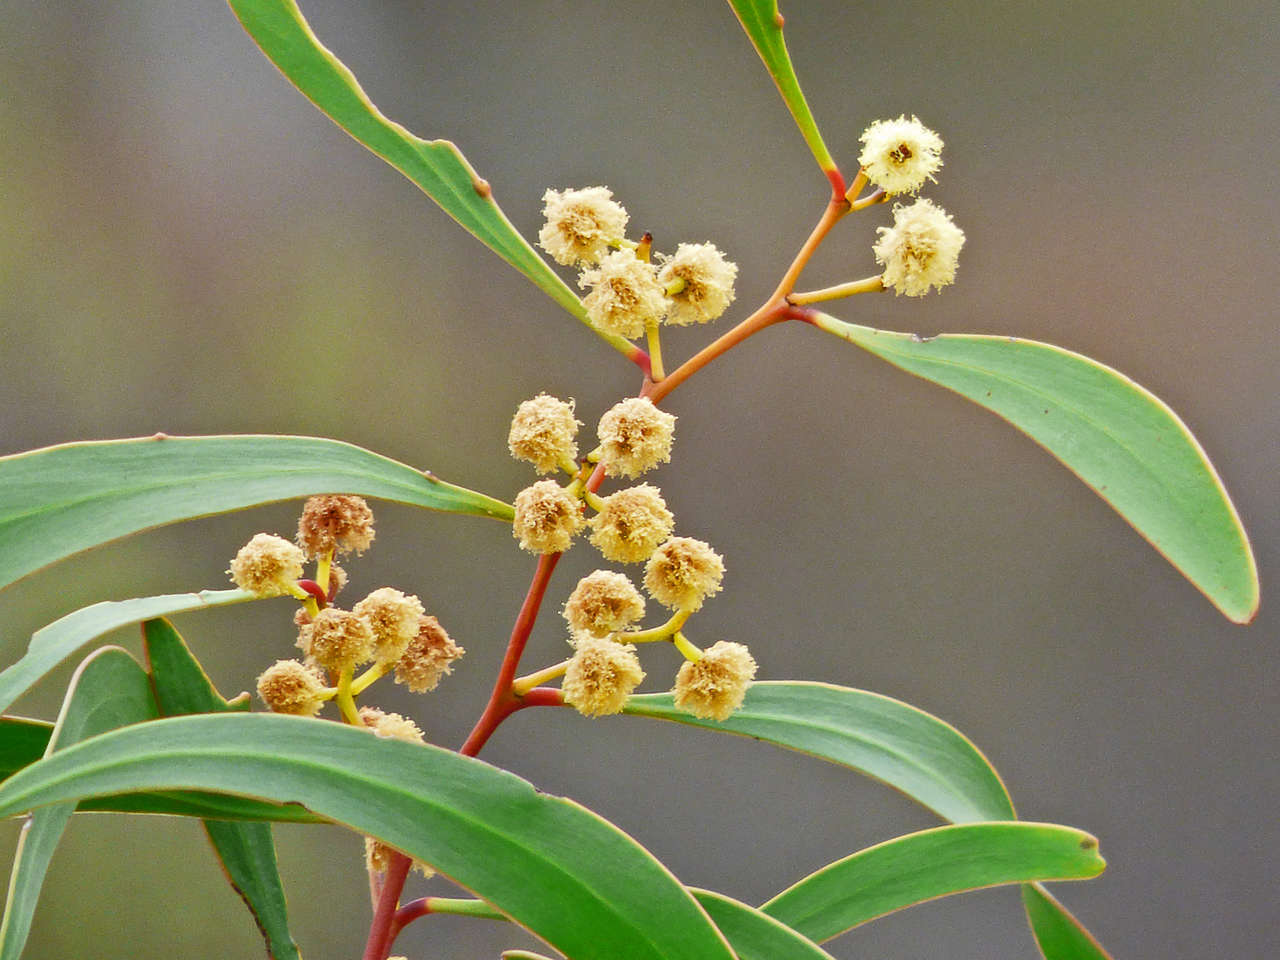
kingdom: Plantae
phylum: Tracheophyta
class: Magnoliopsida
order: Fabales
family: Fabaceae
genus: Acacia
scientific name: Acacia pycnantha
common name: Golden wattle
